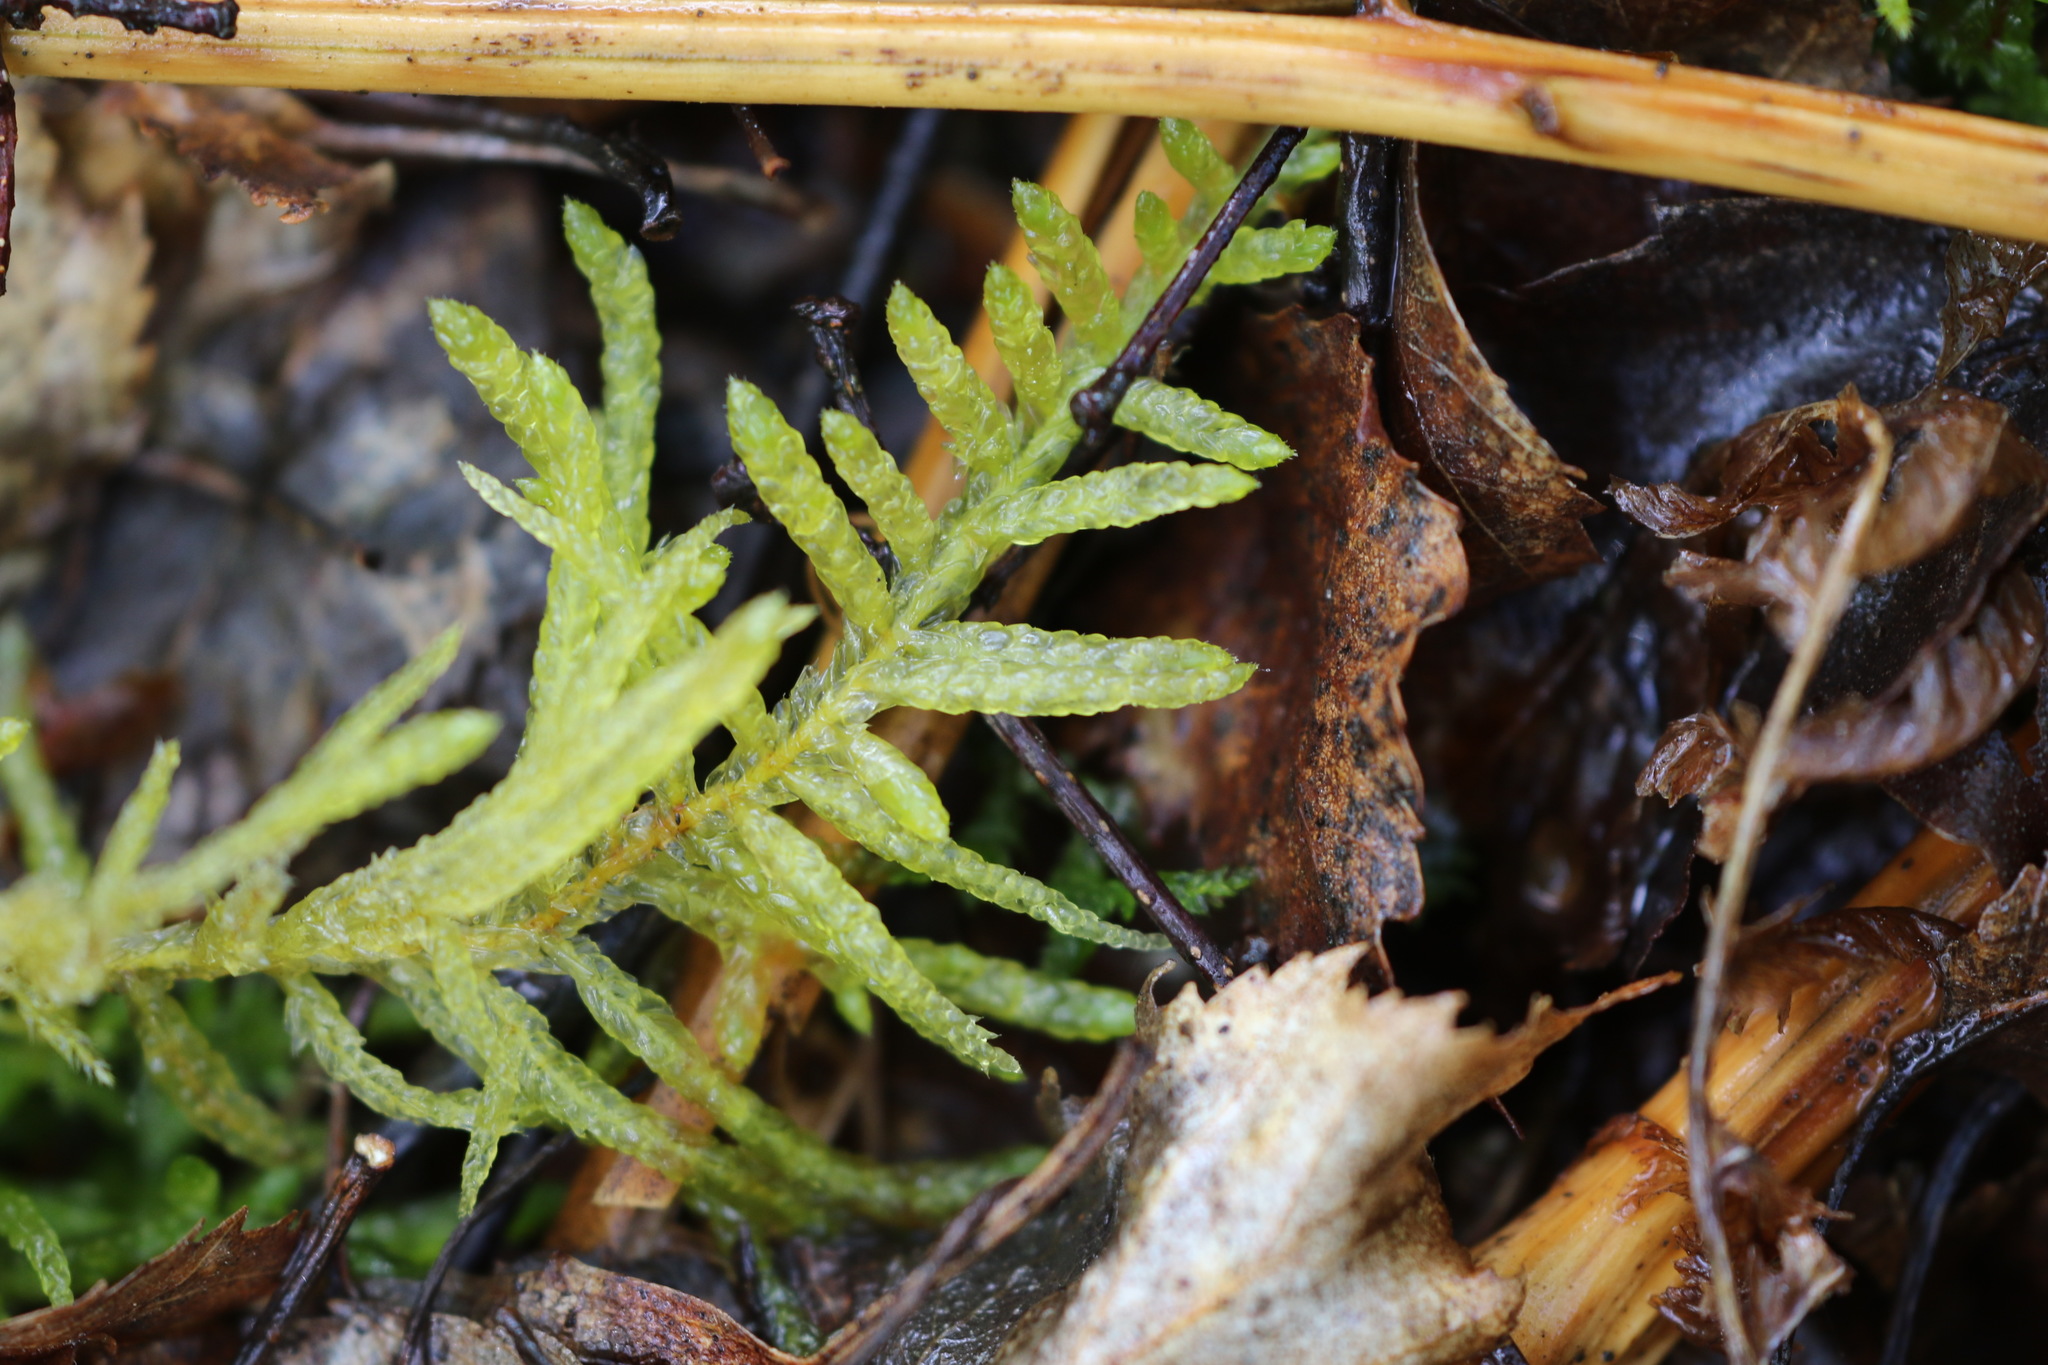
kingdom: Plantae
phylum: Bryophyta
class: Bryopsida
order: Hypnales
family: Brachytheciaceae
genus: Pseudoscleropodium
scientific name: Pseudoscleropodium purum
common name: Neat feather-moss
